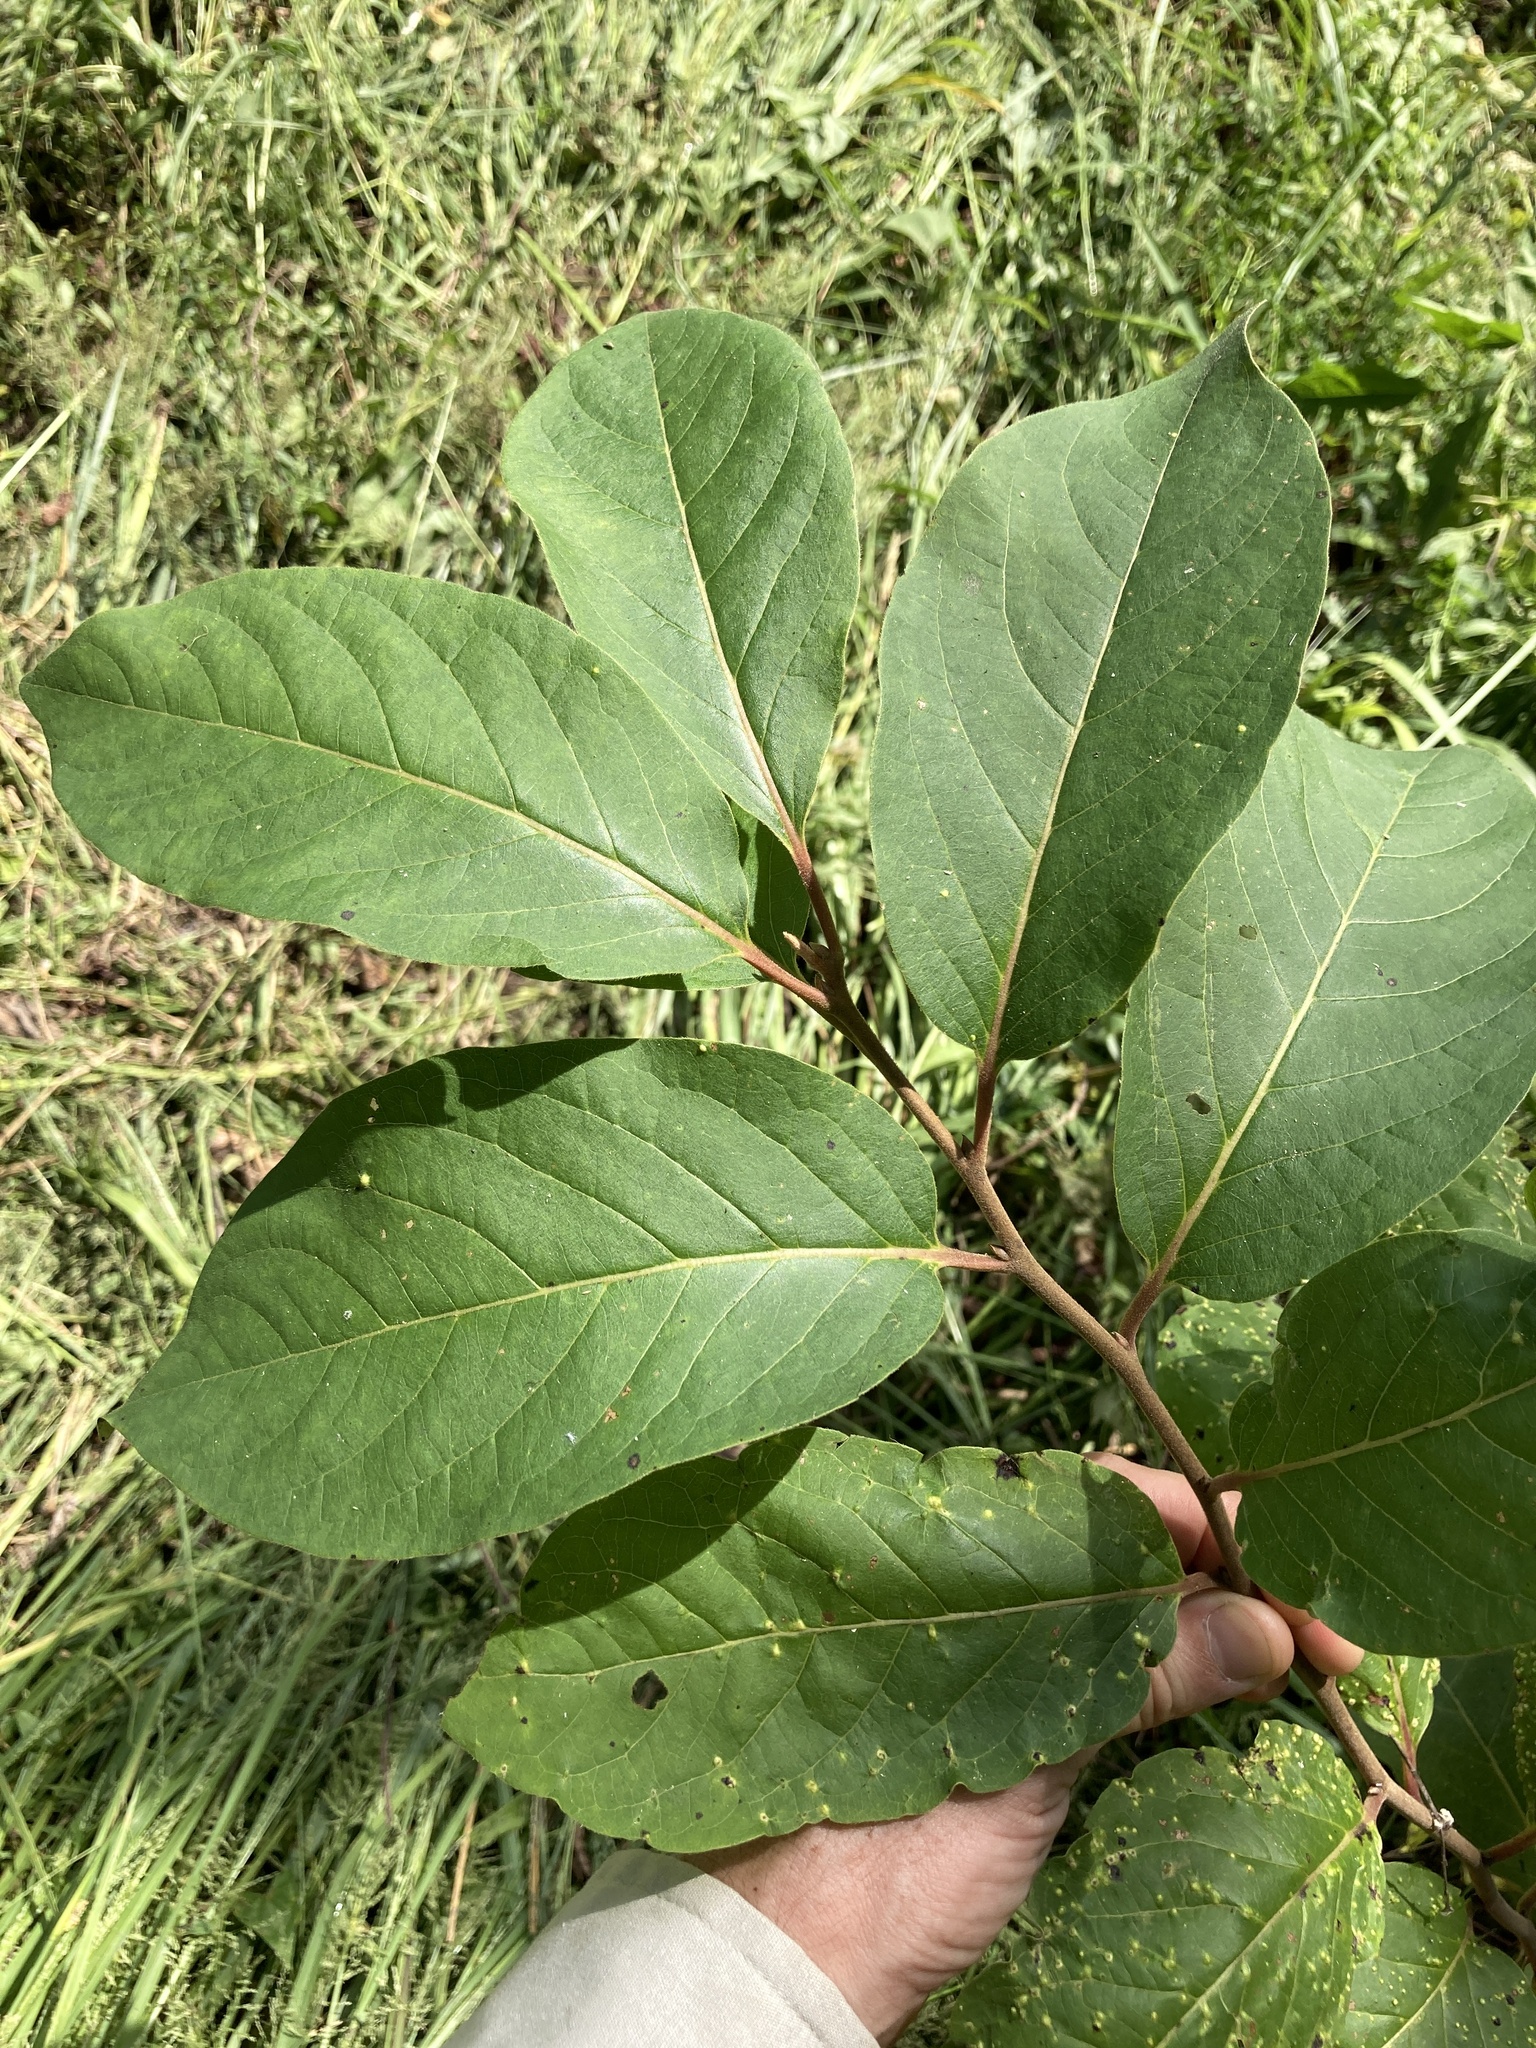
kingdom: Plantae
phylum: Tracheophyta
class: Magnoliopsida
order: Ericales
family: Ebenaceae
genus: Diospyros
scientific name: Diospyros virginiana
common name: Persimmon
